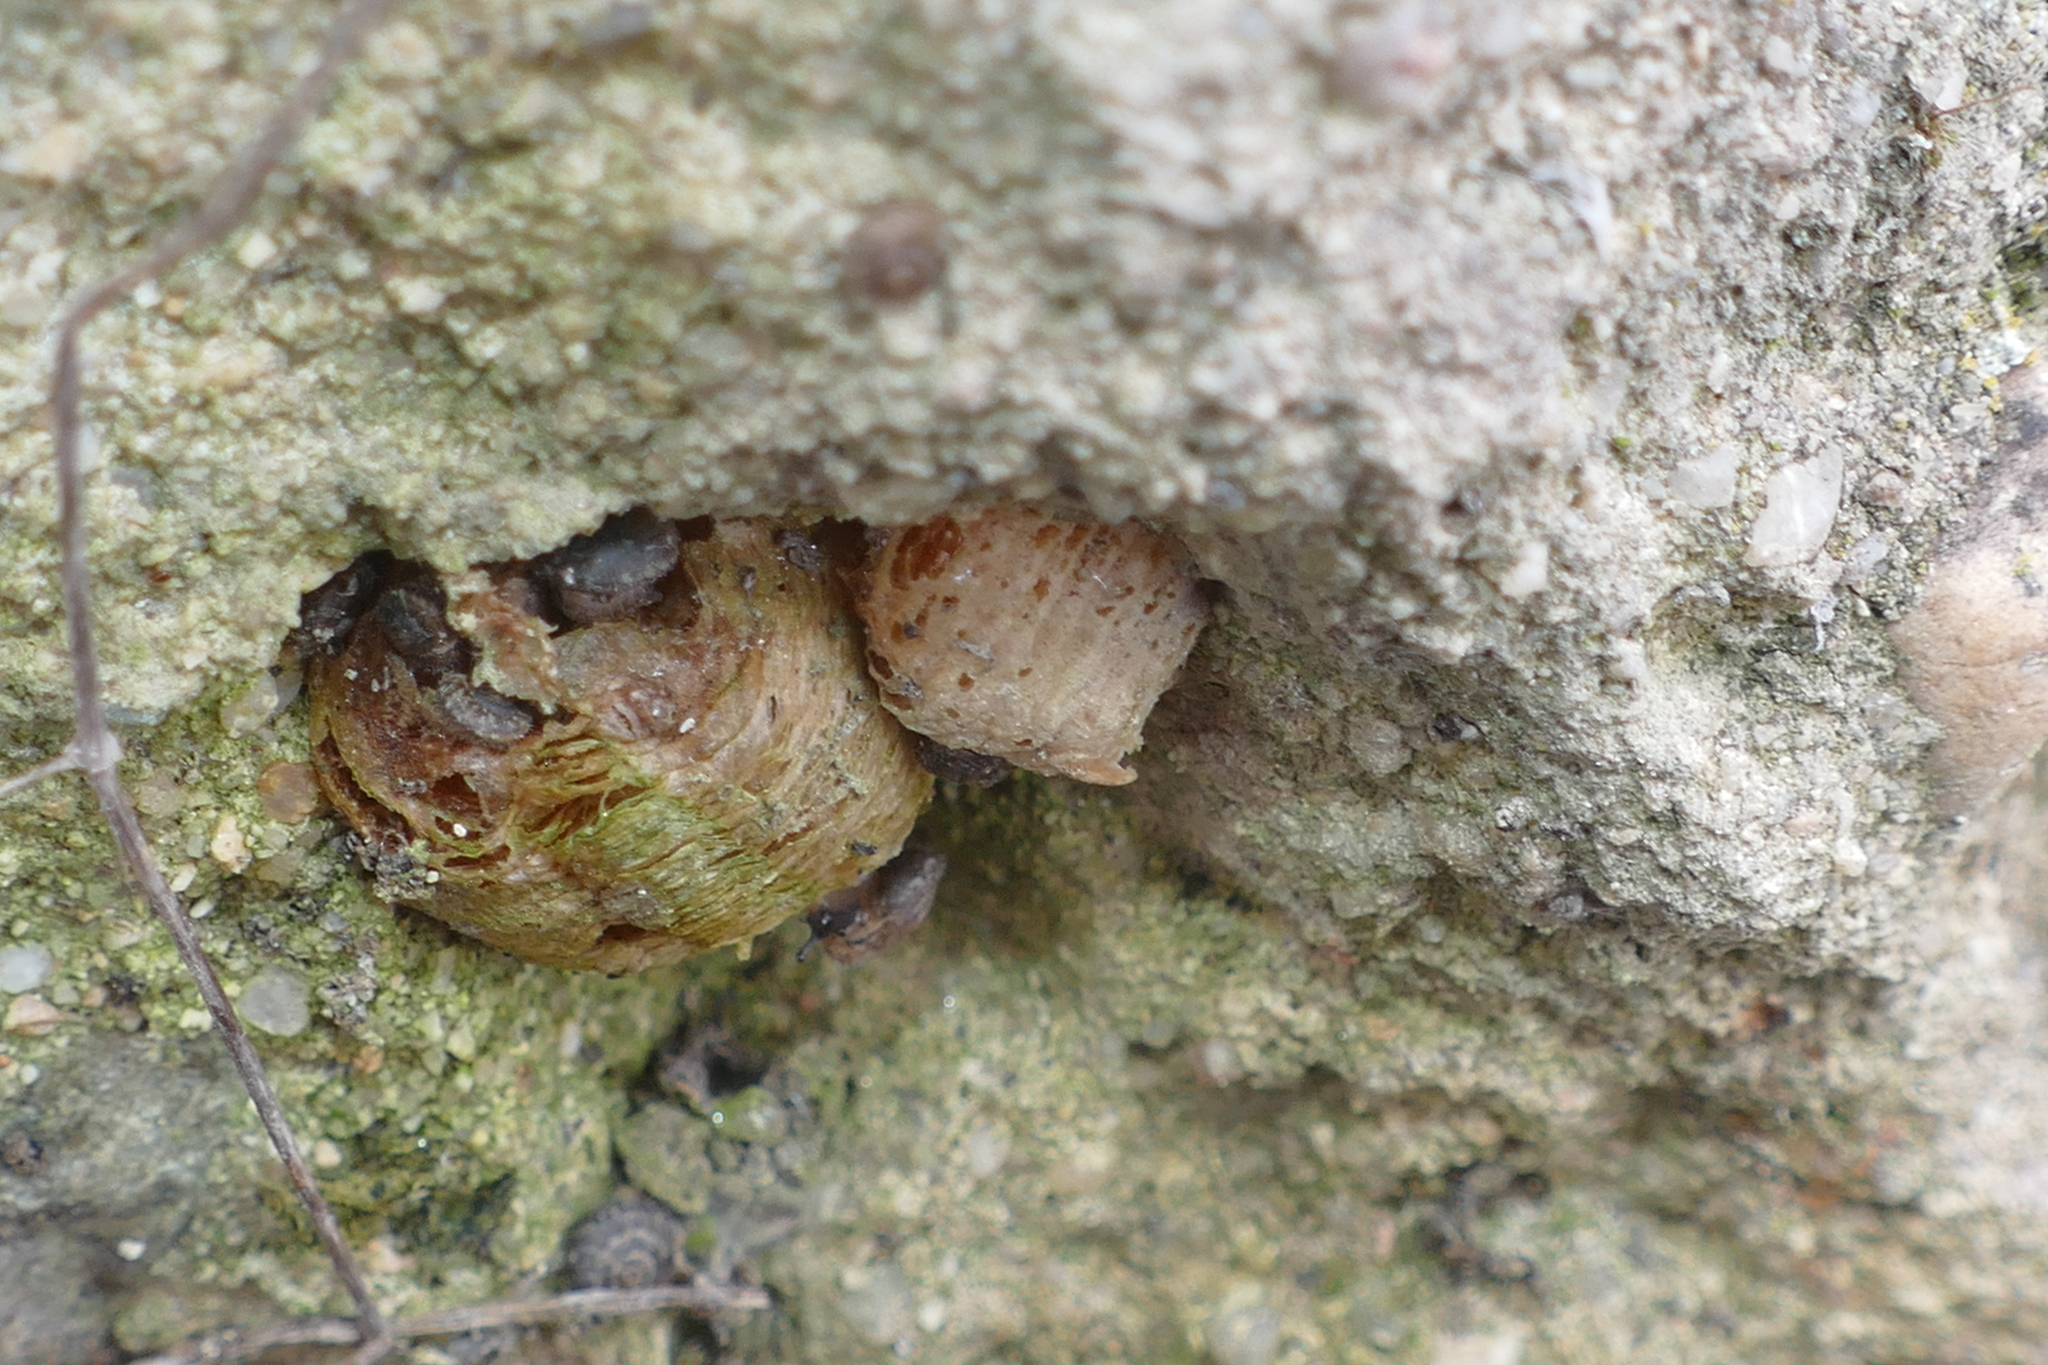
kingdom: Animalia
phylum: Arthropoda
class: Insecta
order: Mantodea
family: Mantidae
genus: Mantis
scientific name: Mantis religiosa
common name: Praying mantis
